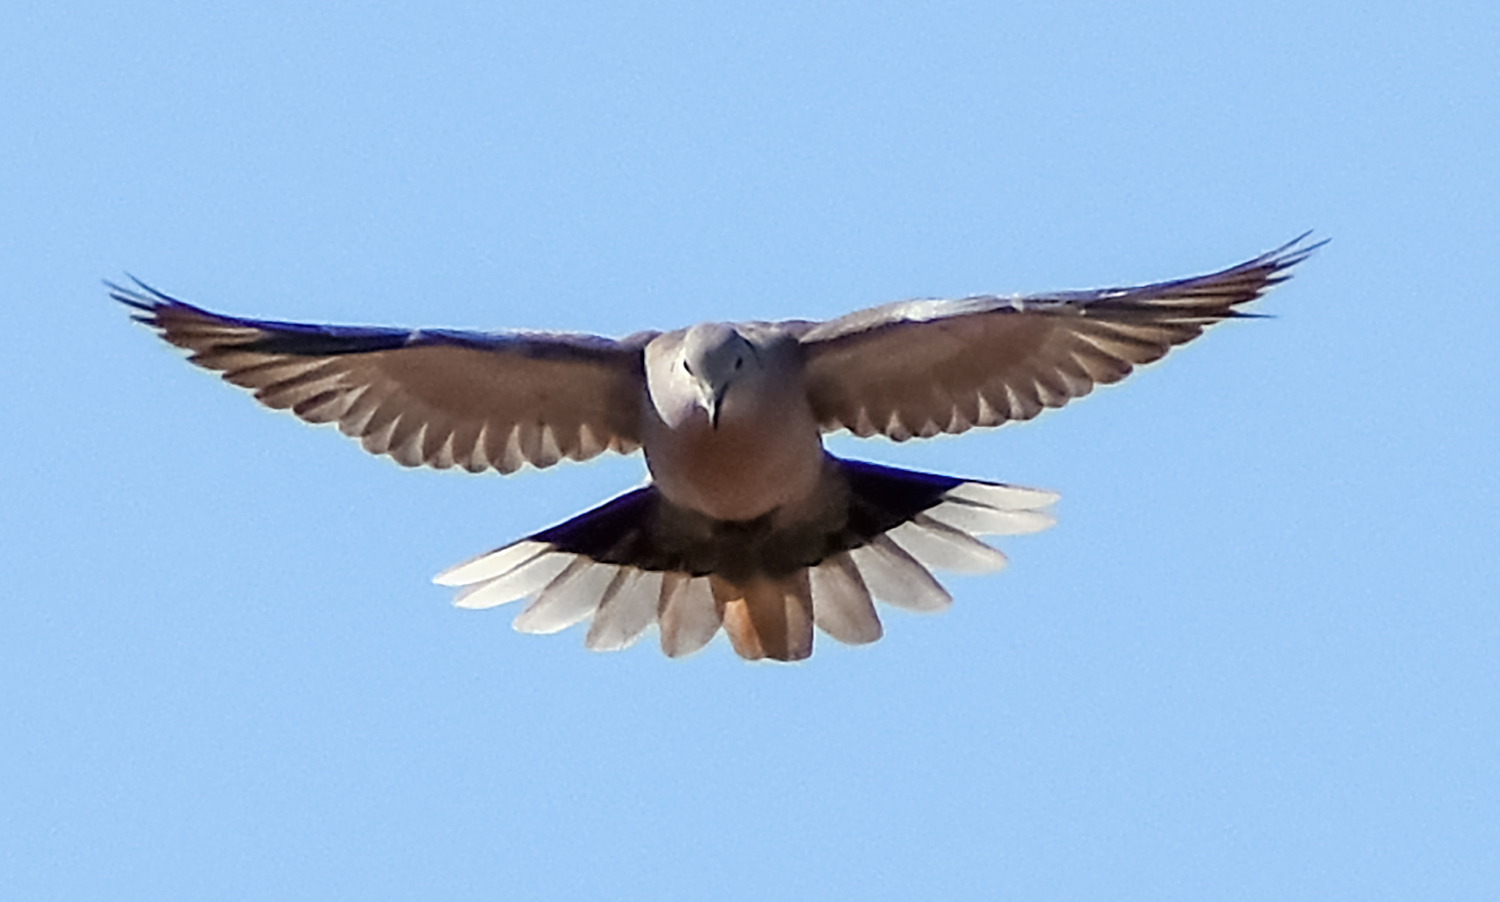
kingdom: Animalia
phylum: Chordata
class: Aves
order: Columbiformes
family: Columbidae
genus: Streptopelia
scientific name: Streptopelia decaocto
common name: Eurasian collared dove
